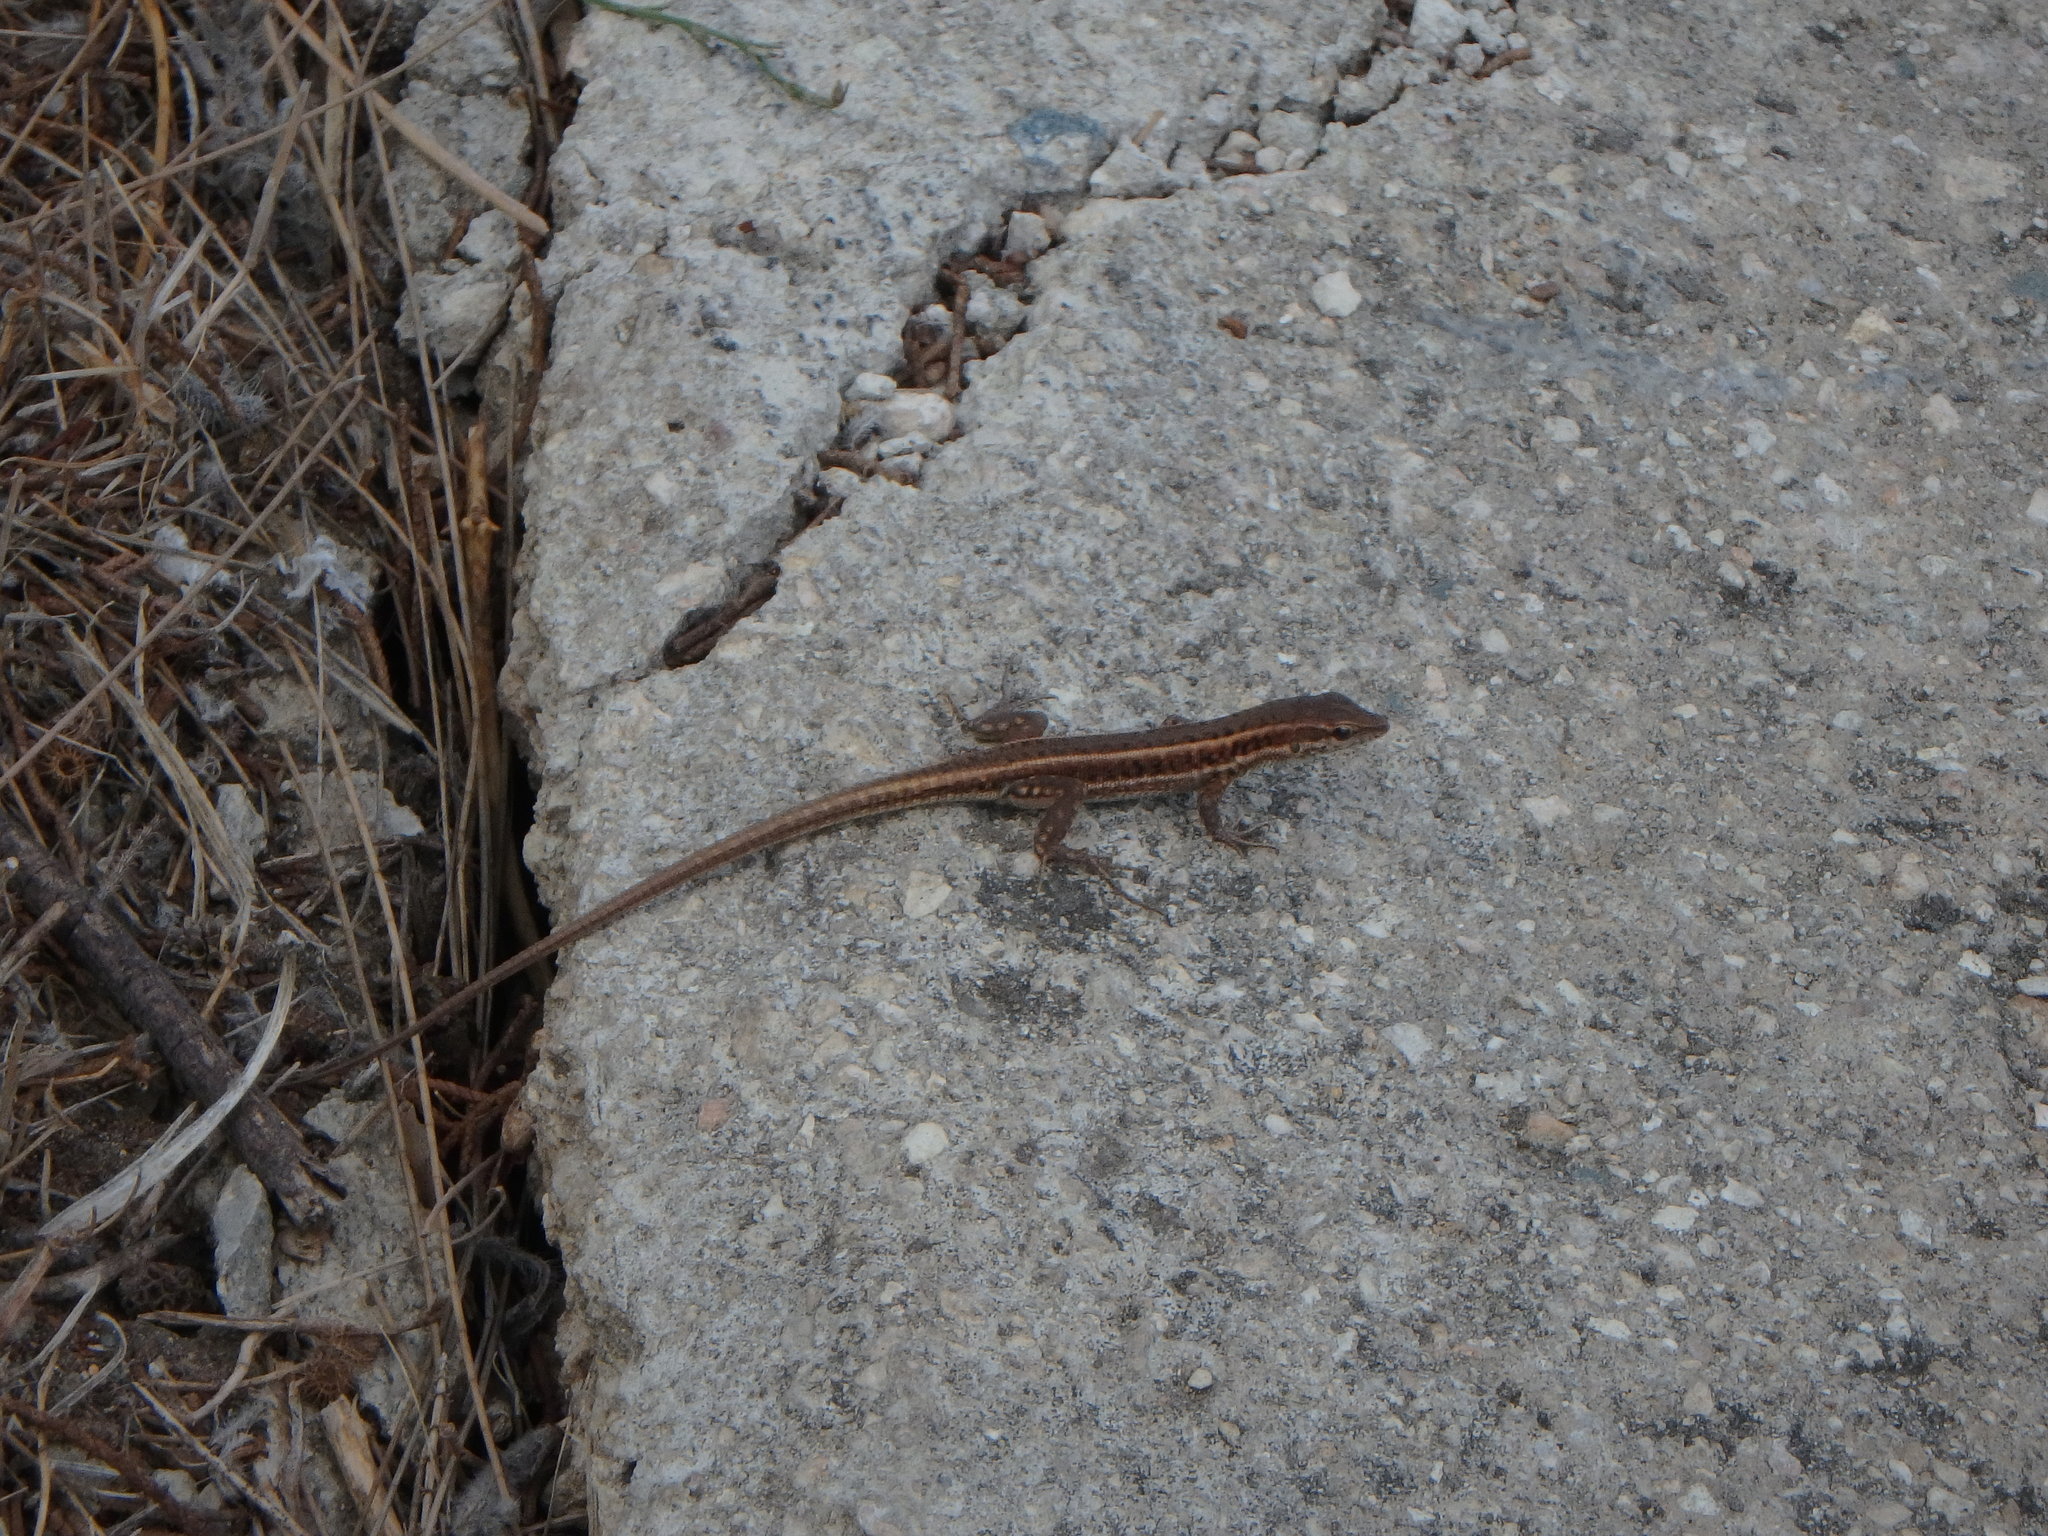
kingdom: Animalia
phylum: Chordata
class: Squamata
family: Lacertidae
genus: Ophisops
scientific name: Ophisops elegans
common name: Snake-eyed lizard
